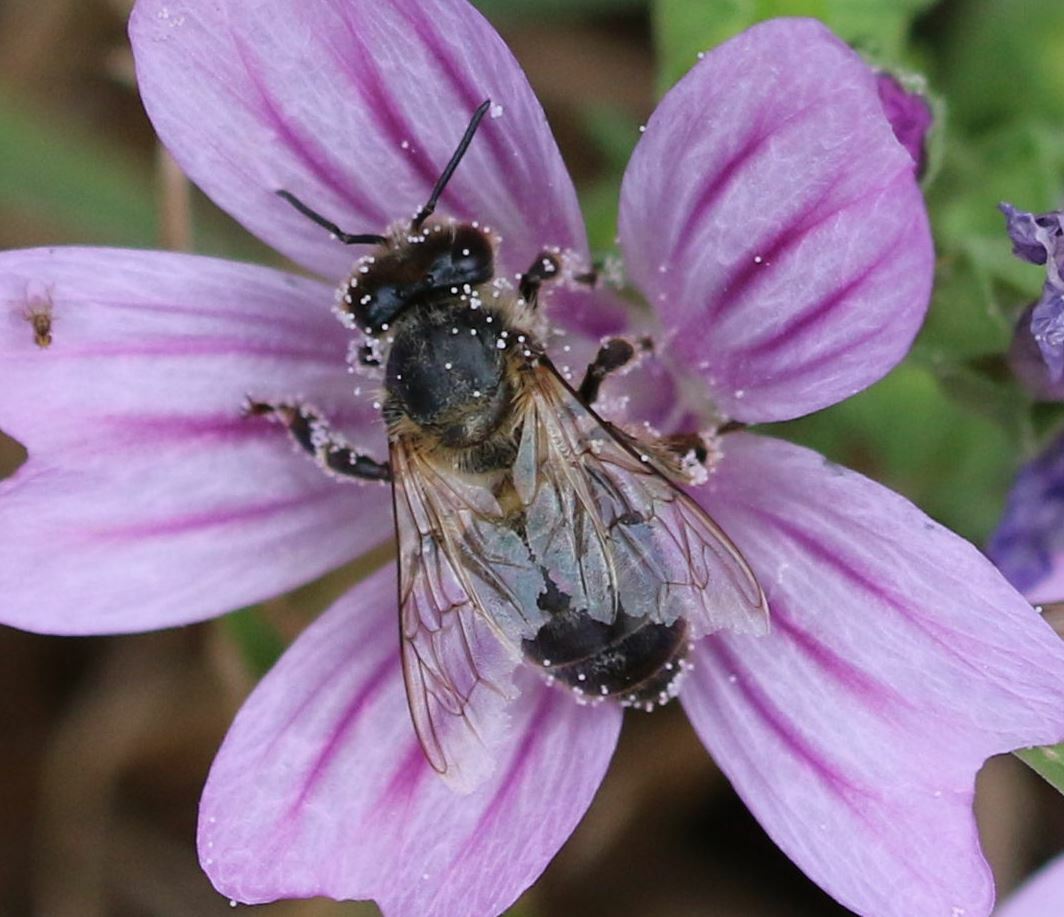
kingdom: Animalia
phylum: Arthropoda
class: Insecta
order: Hymenoptera
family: Apidae
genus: Apis
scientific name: Apis mellifera
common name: Honey bee
